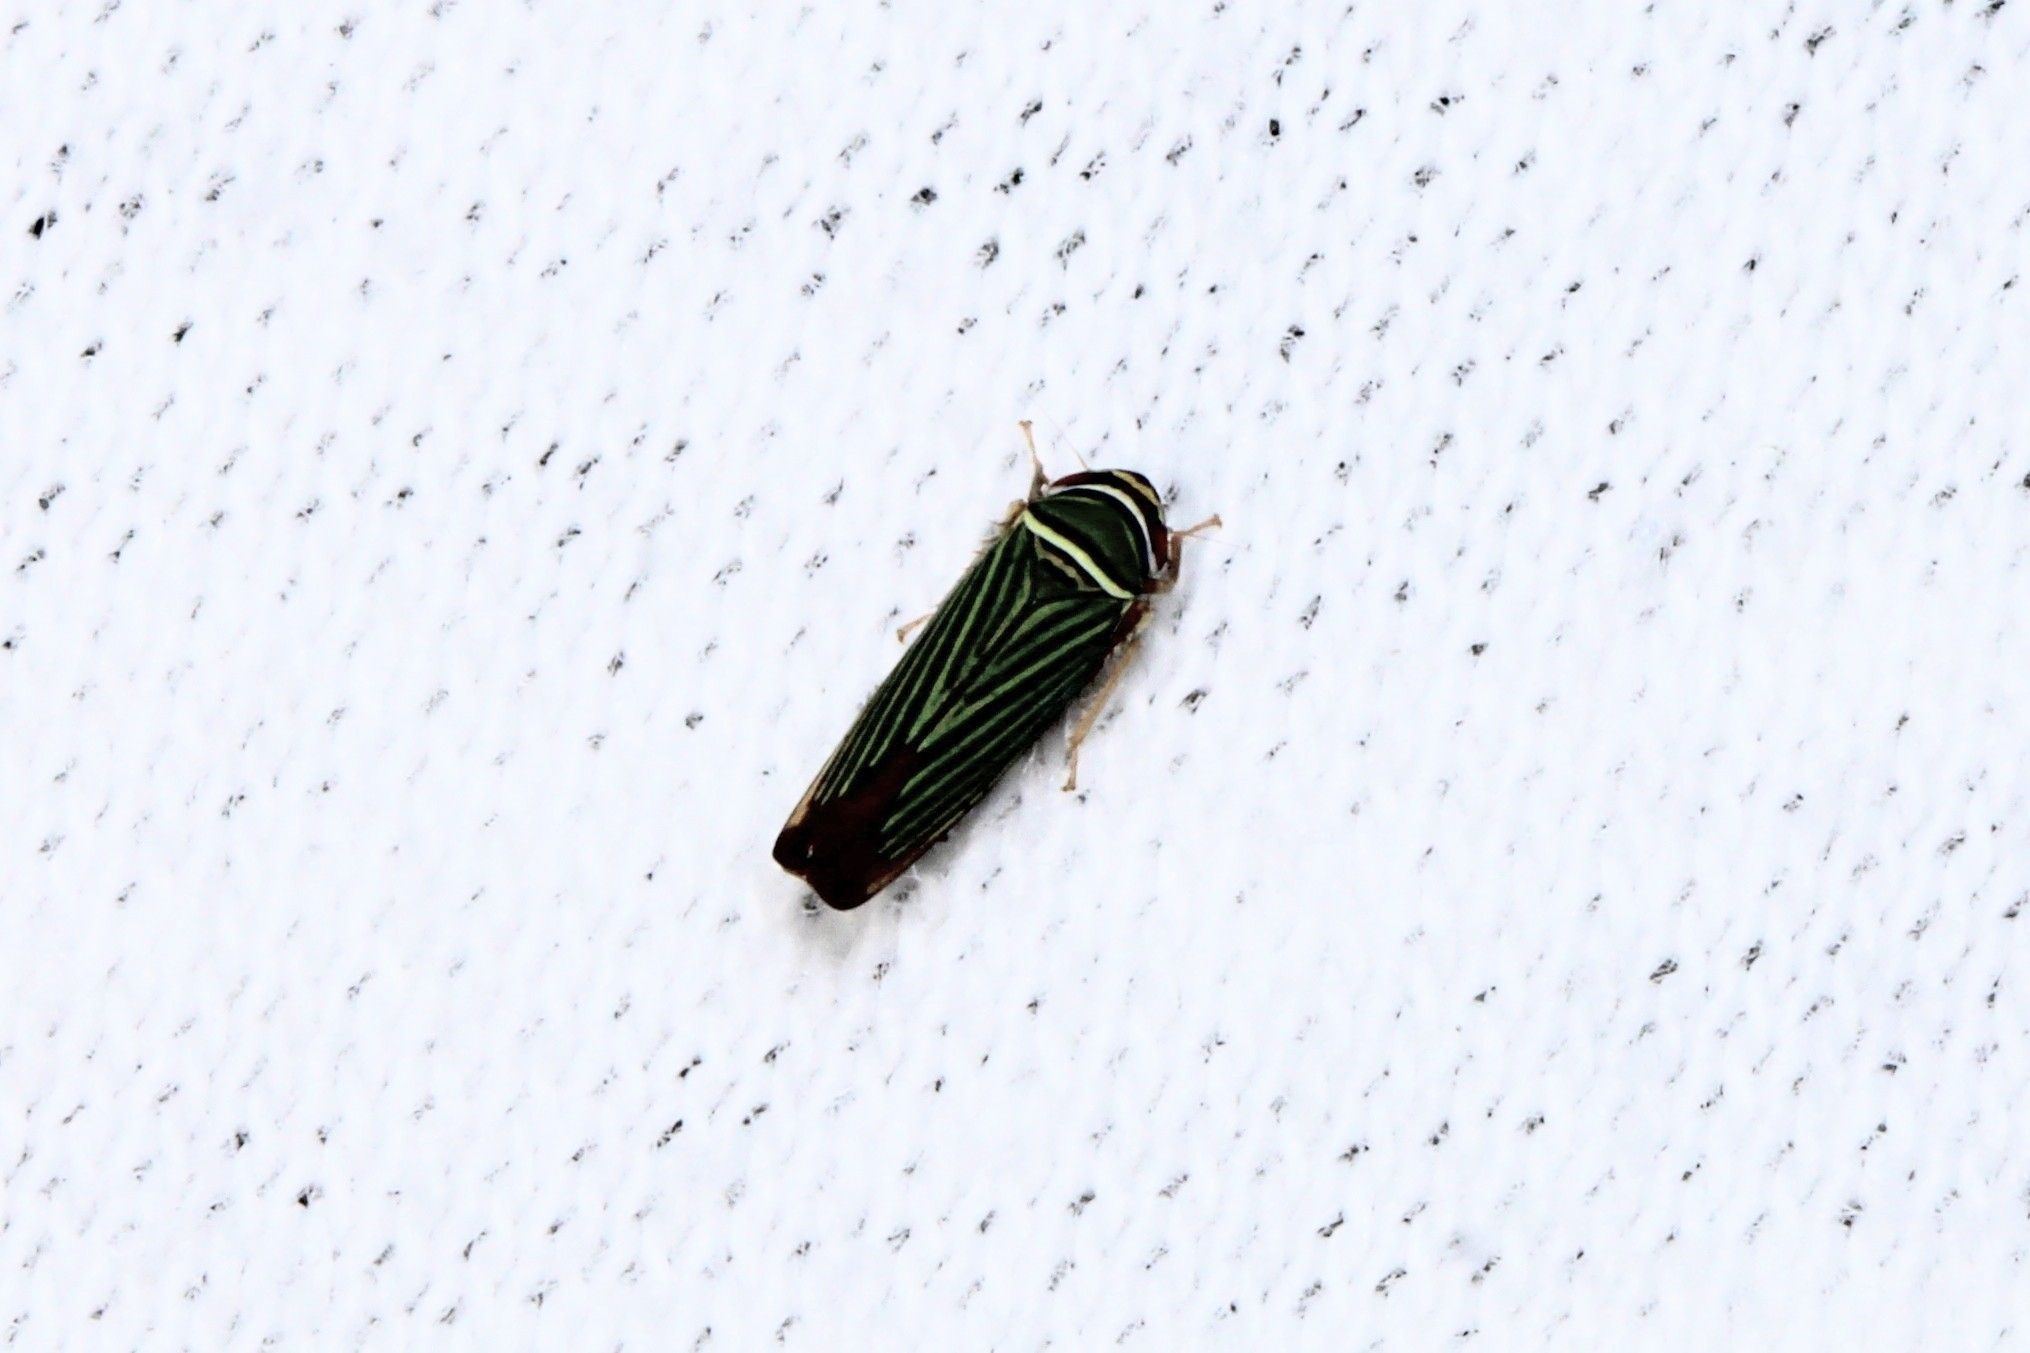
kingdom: Animalia
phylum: Arthropoda
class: Insecta
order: Hemiptera
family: Cicadellidae
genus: Tylozygus
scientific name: Tylozygus bifidus
